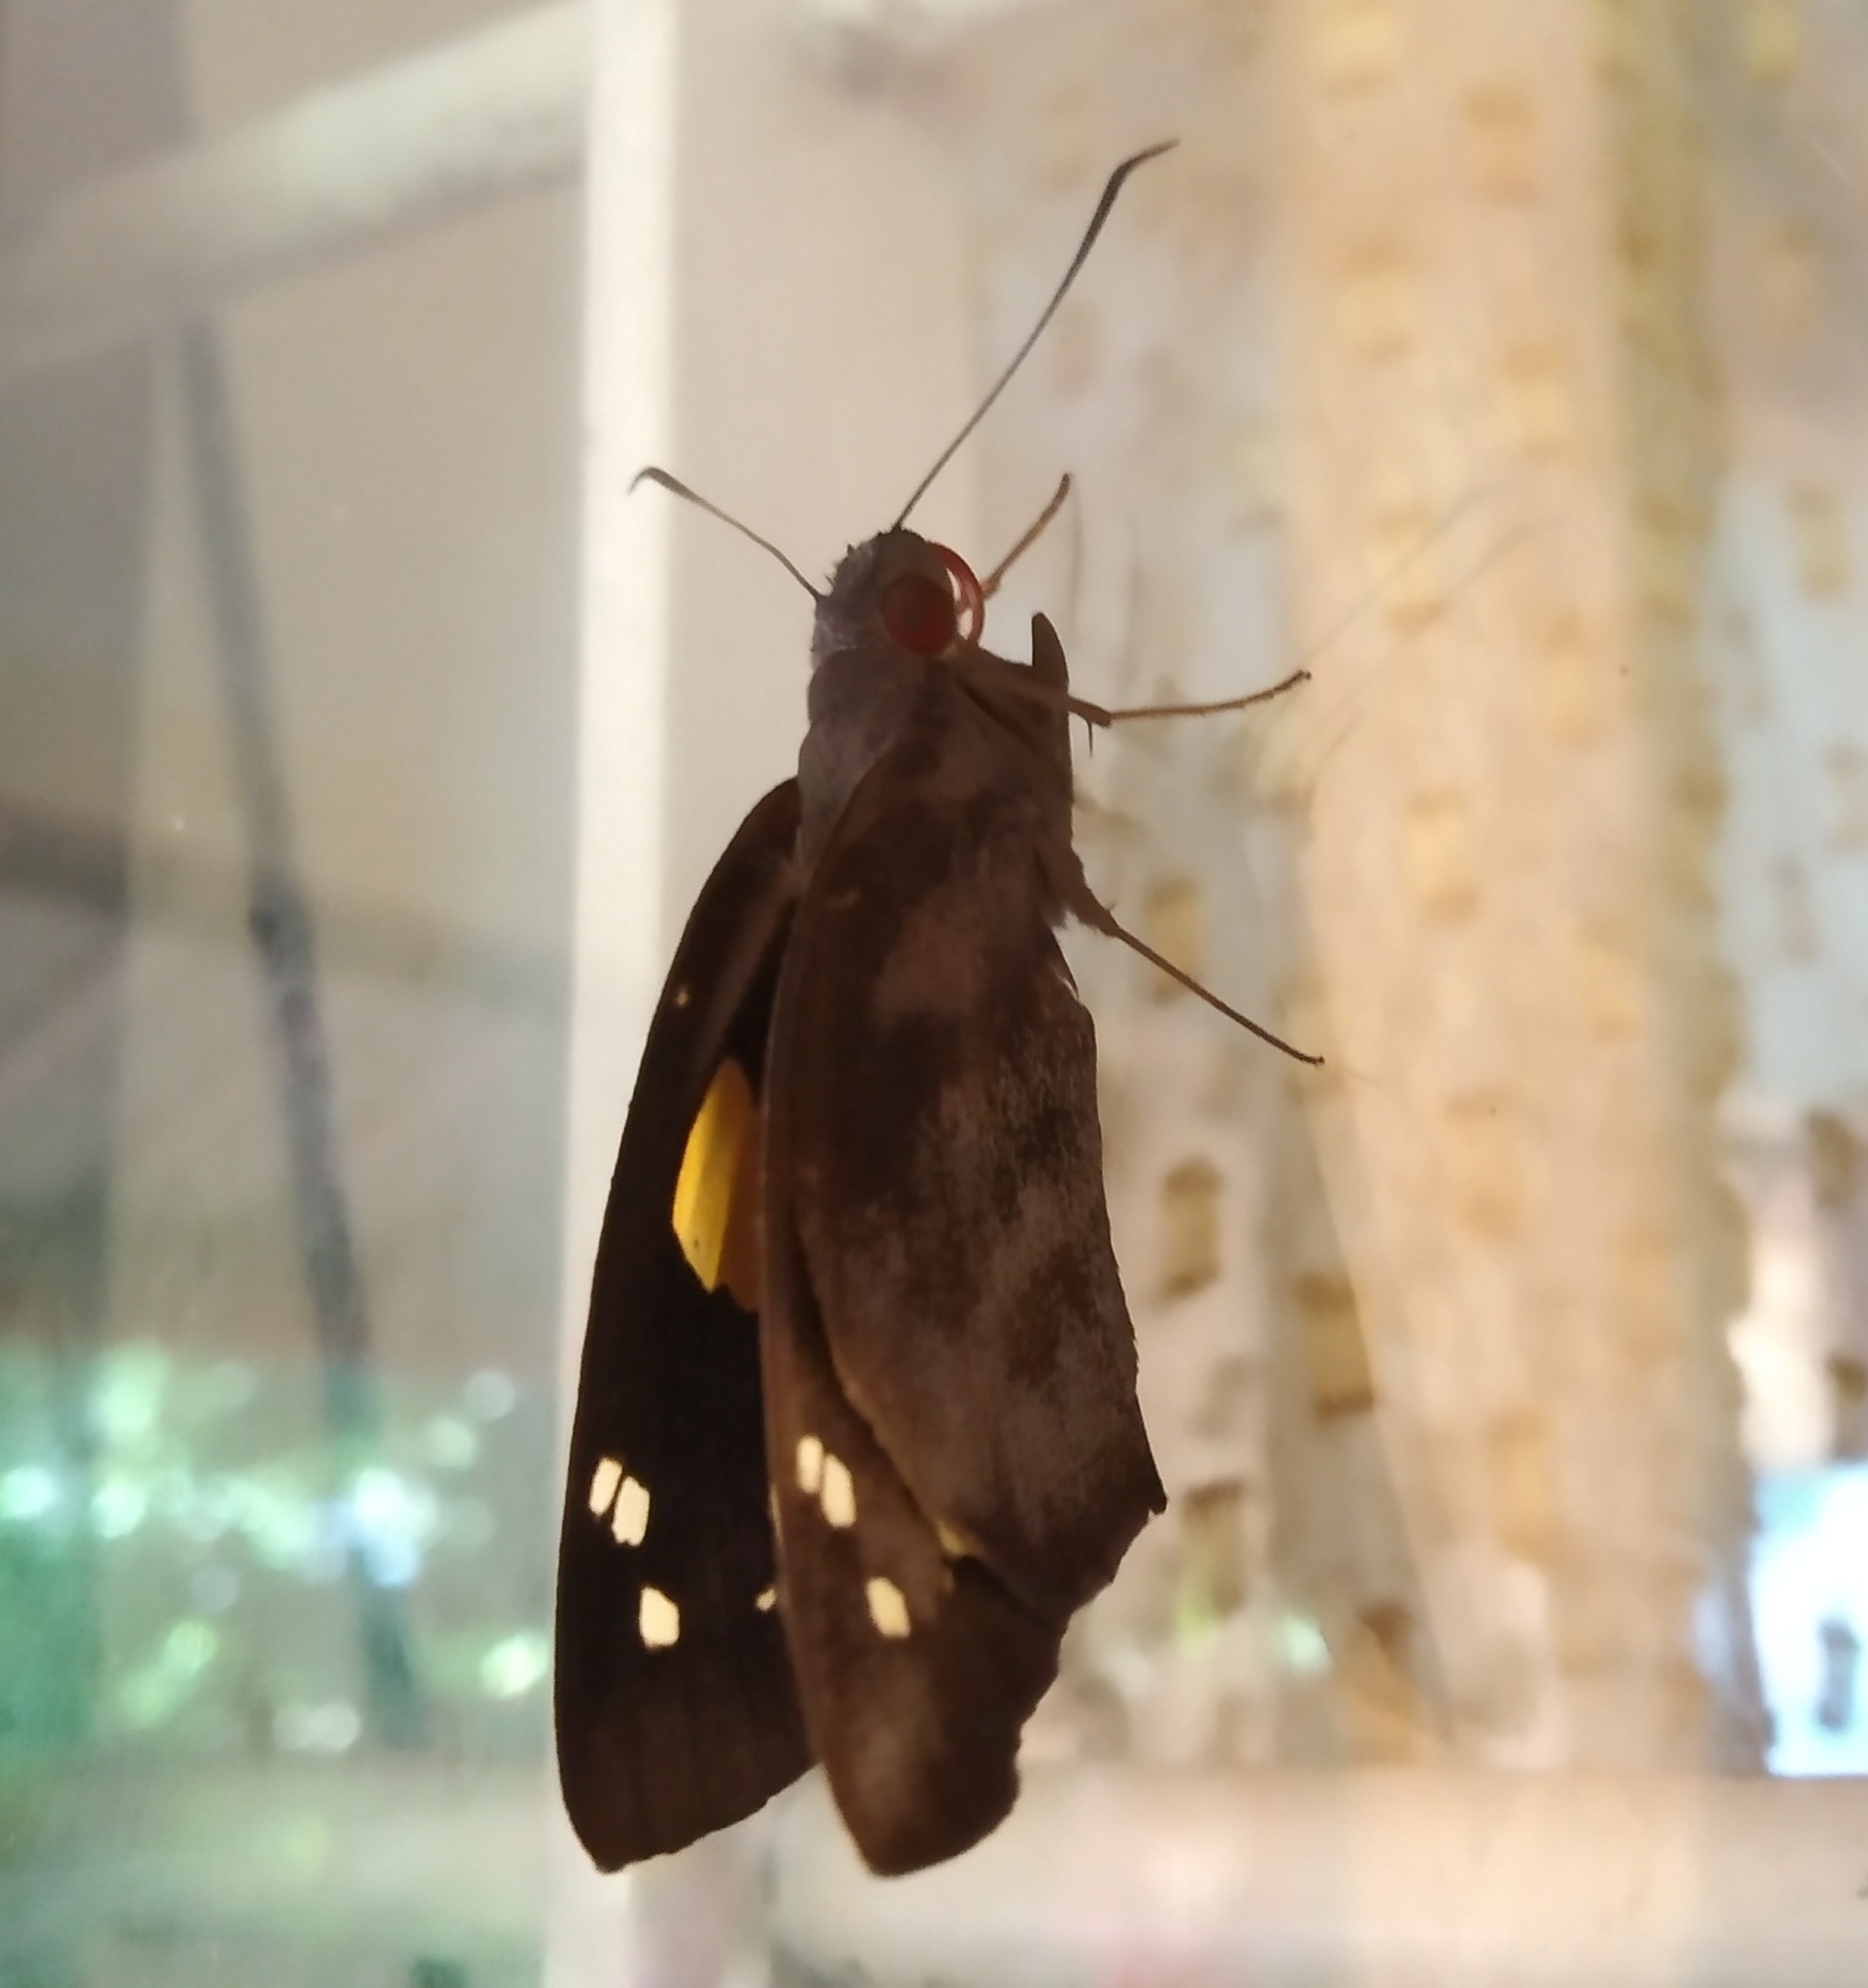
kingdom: Animalia
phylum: Arthropoda
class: Insecta
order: Lepidoptera
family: Hesperiidae
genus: Gangara
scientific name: Gangara thyrsis
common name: Giant redeye
